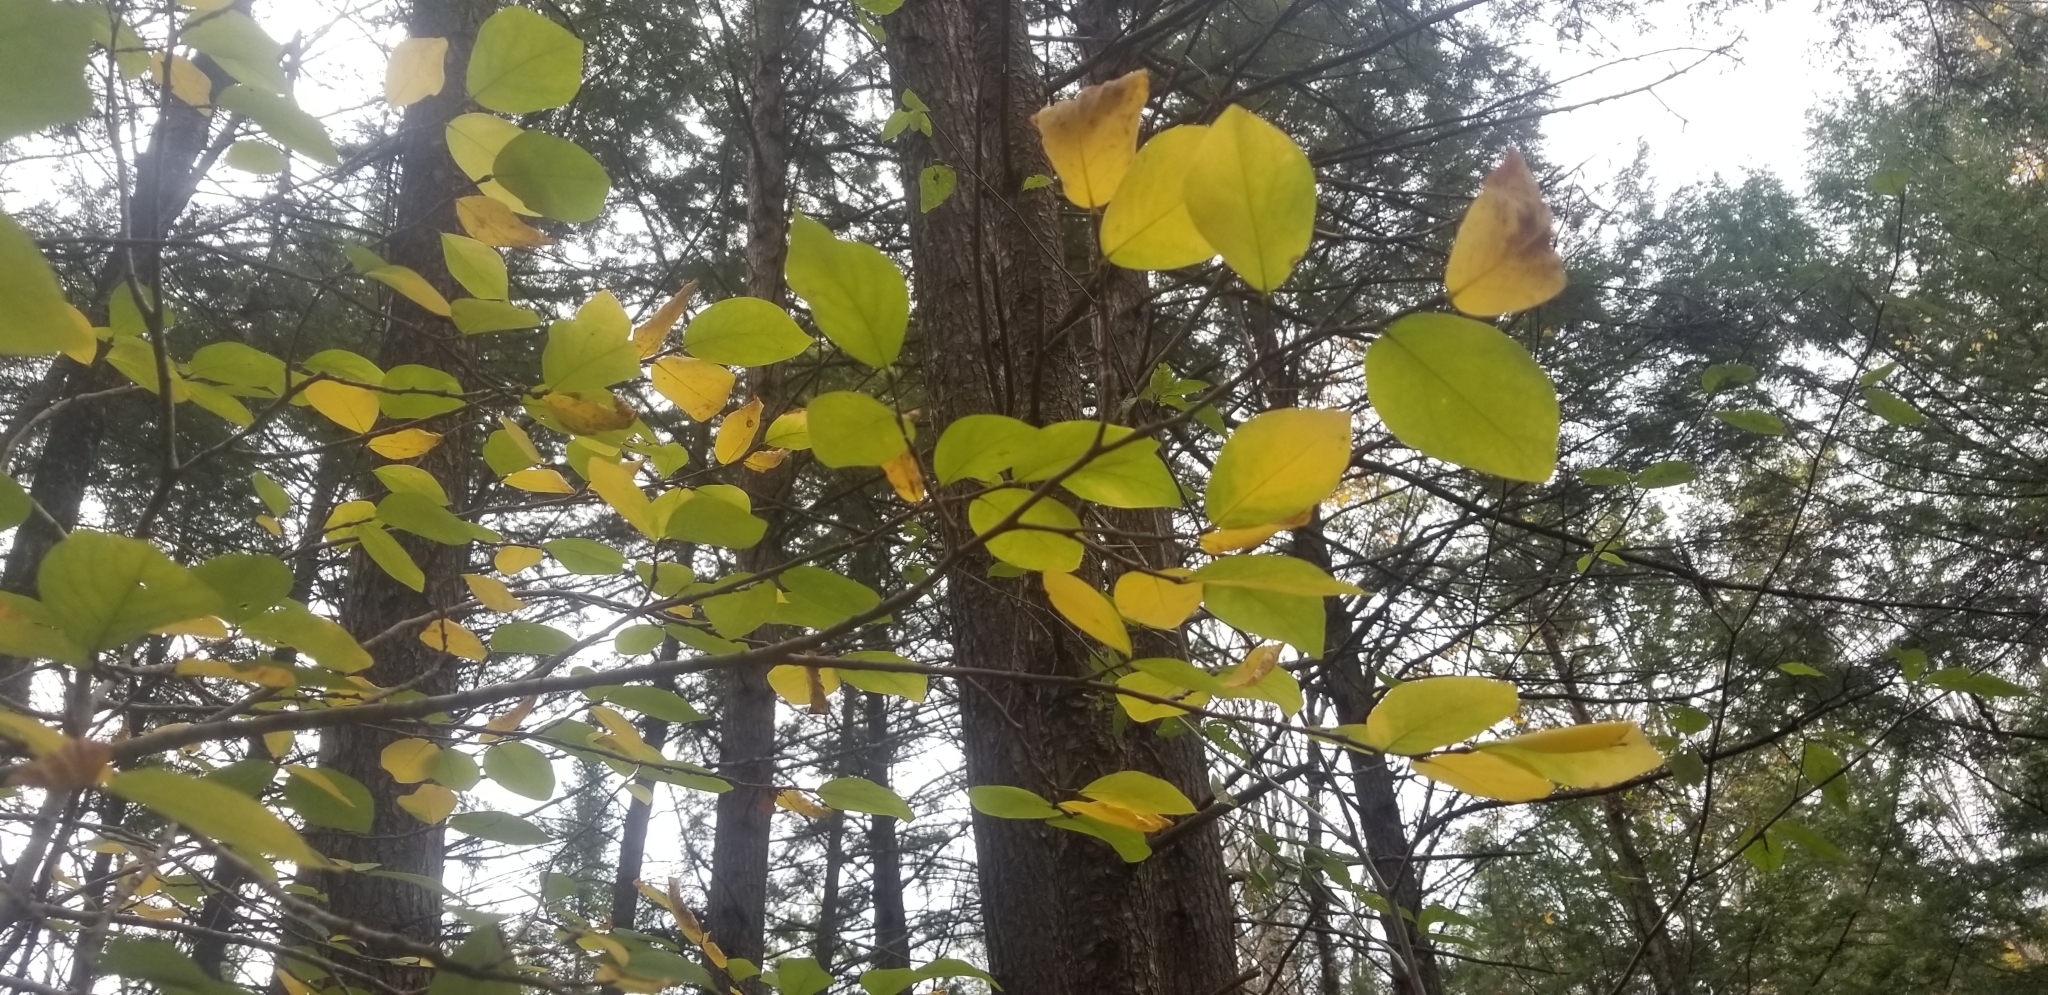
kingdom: Plantae
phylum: Tracheophyta
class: Magnoliopsida
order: Malvales
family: Thymelaeaceae
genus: Dirca
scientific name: Dirca palustris
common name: Leatherwood
